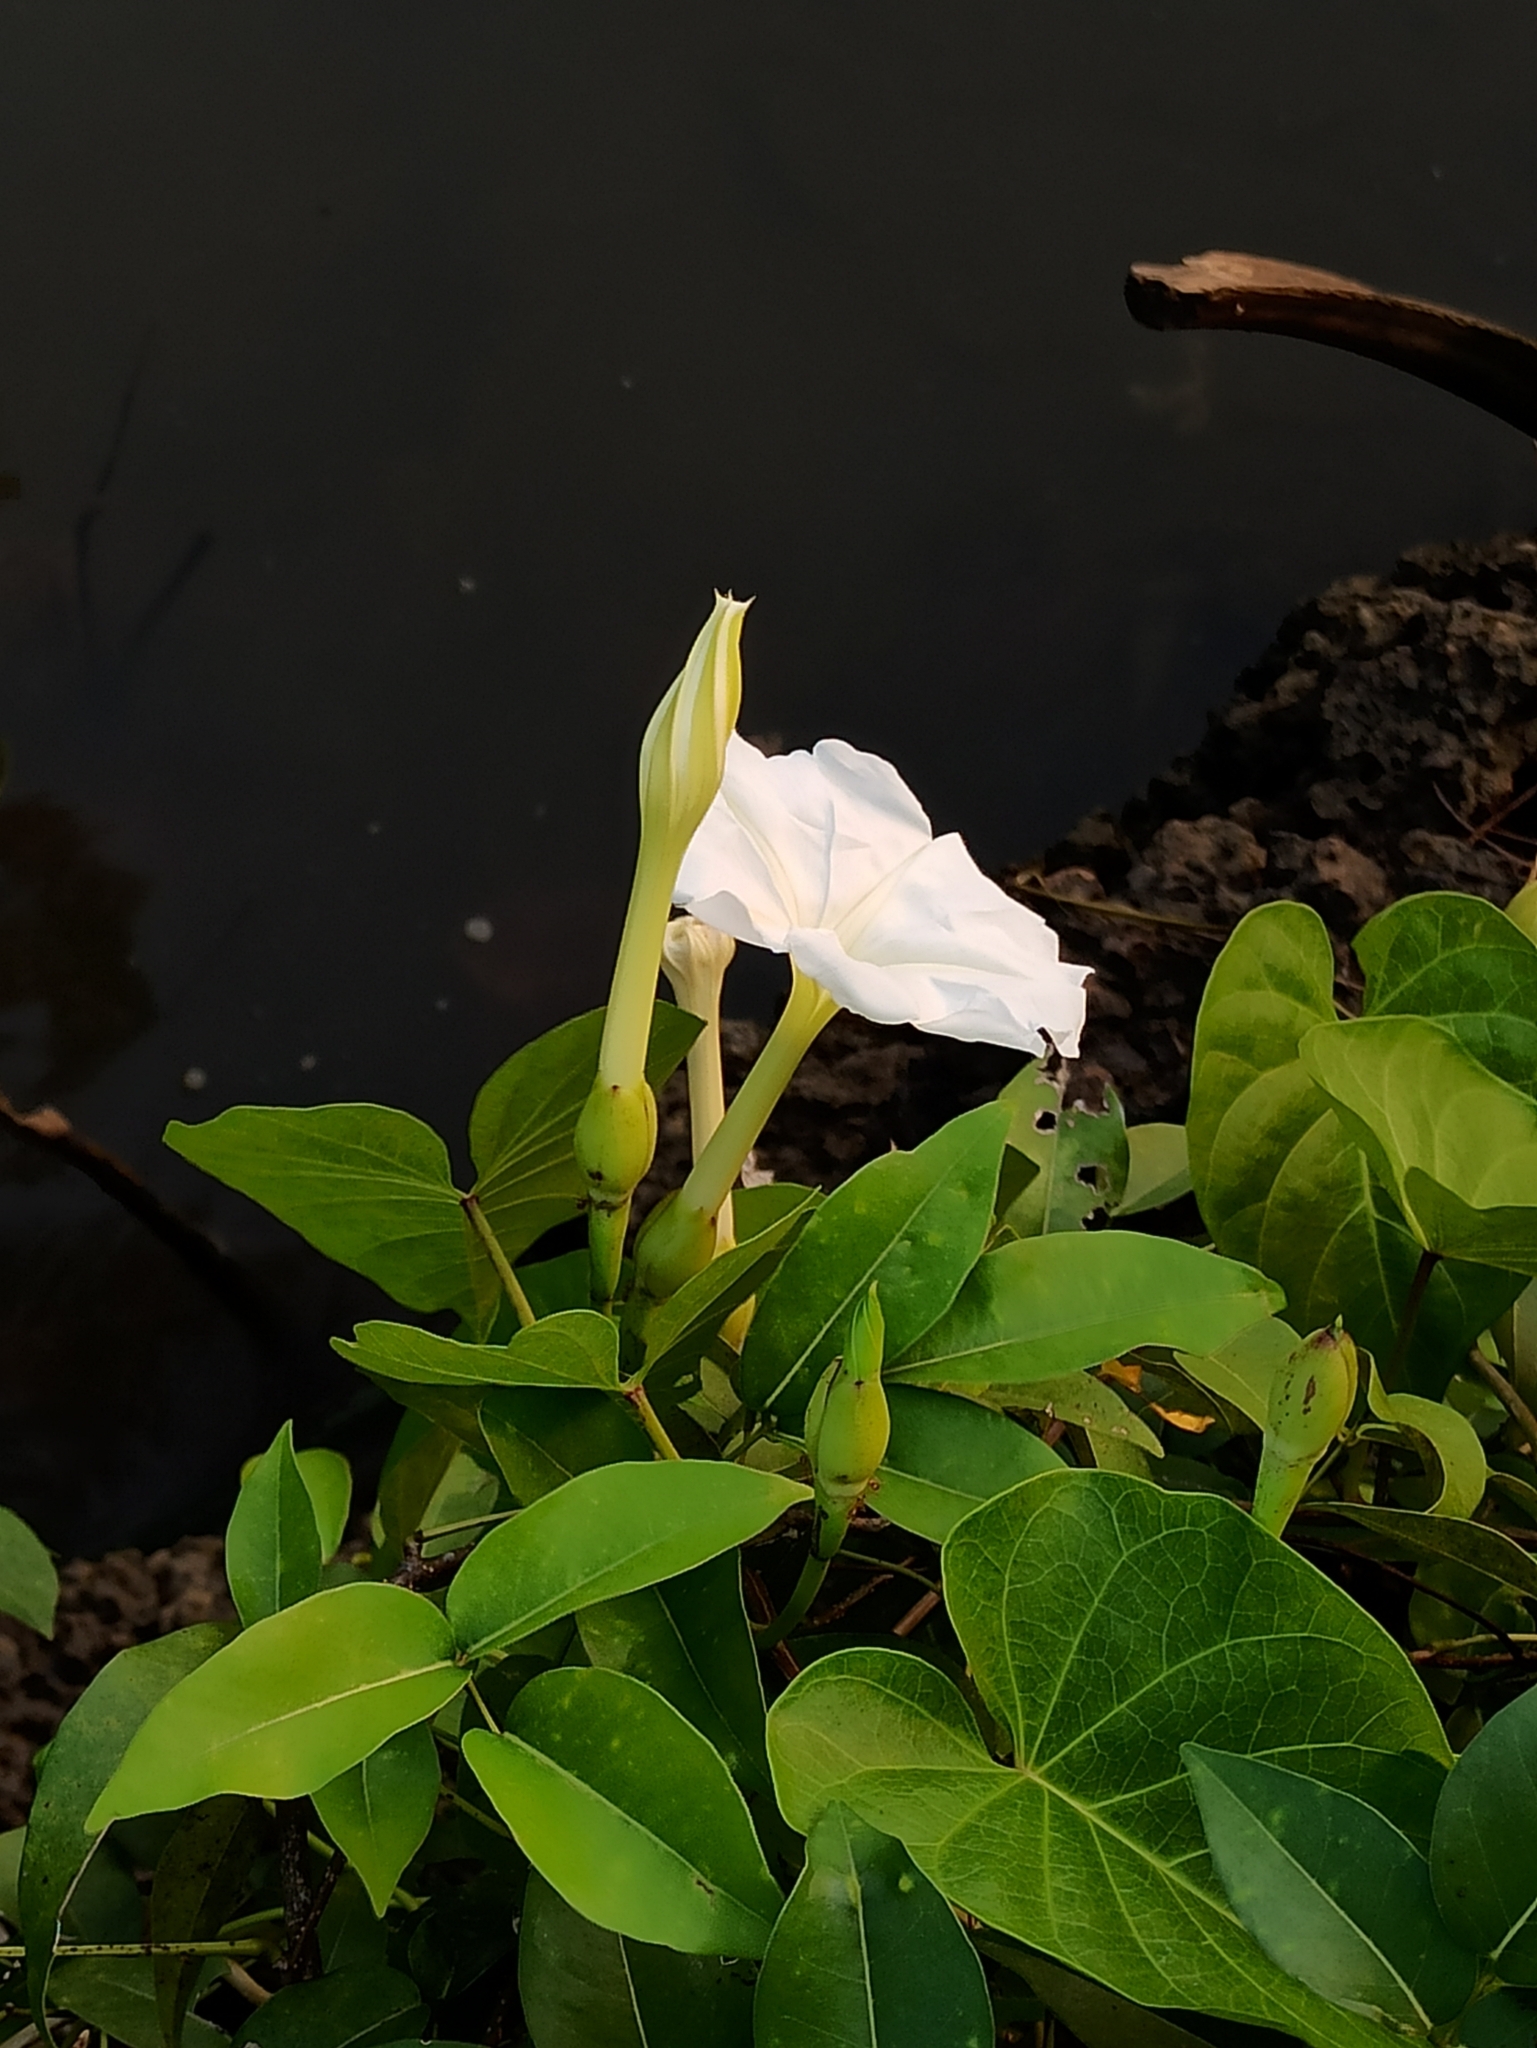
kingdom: Plantae
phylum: Tracheophyta
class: Magnoliopsida
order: Solanales
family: Convolvulaceae
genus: Ipomoea
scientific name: Ipomoea alba
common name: Moonflower
